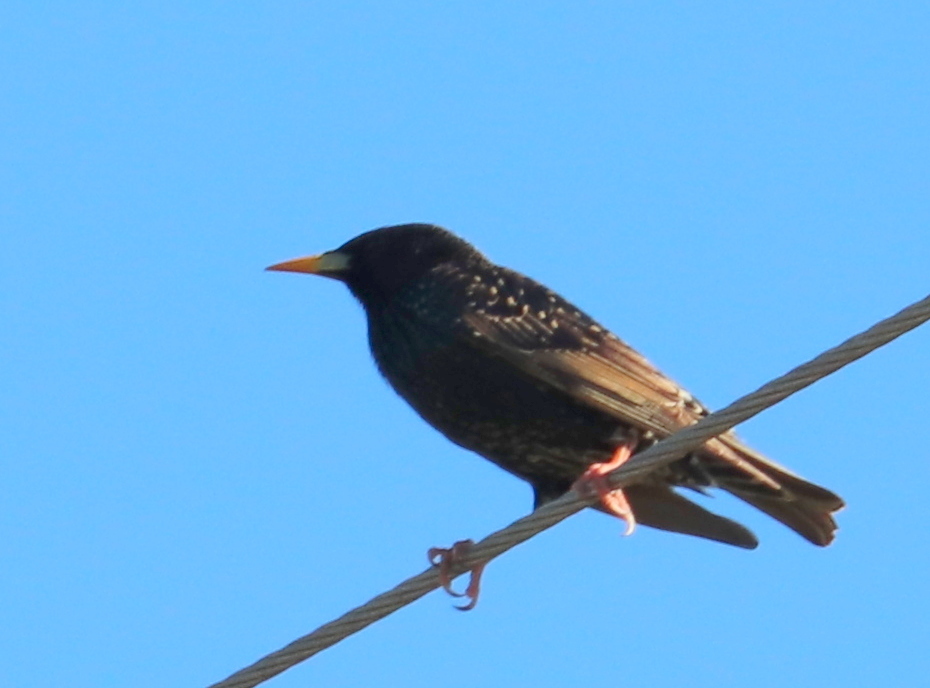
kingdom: Animalia
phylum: Chordata
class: Aves
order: Passeriformes
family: Sturnidae
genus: Sturnus
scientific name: Sturnus vulgaris
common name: Common starling
